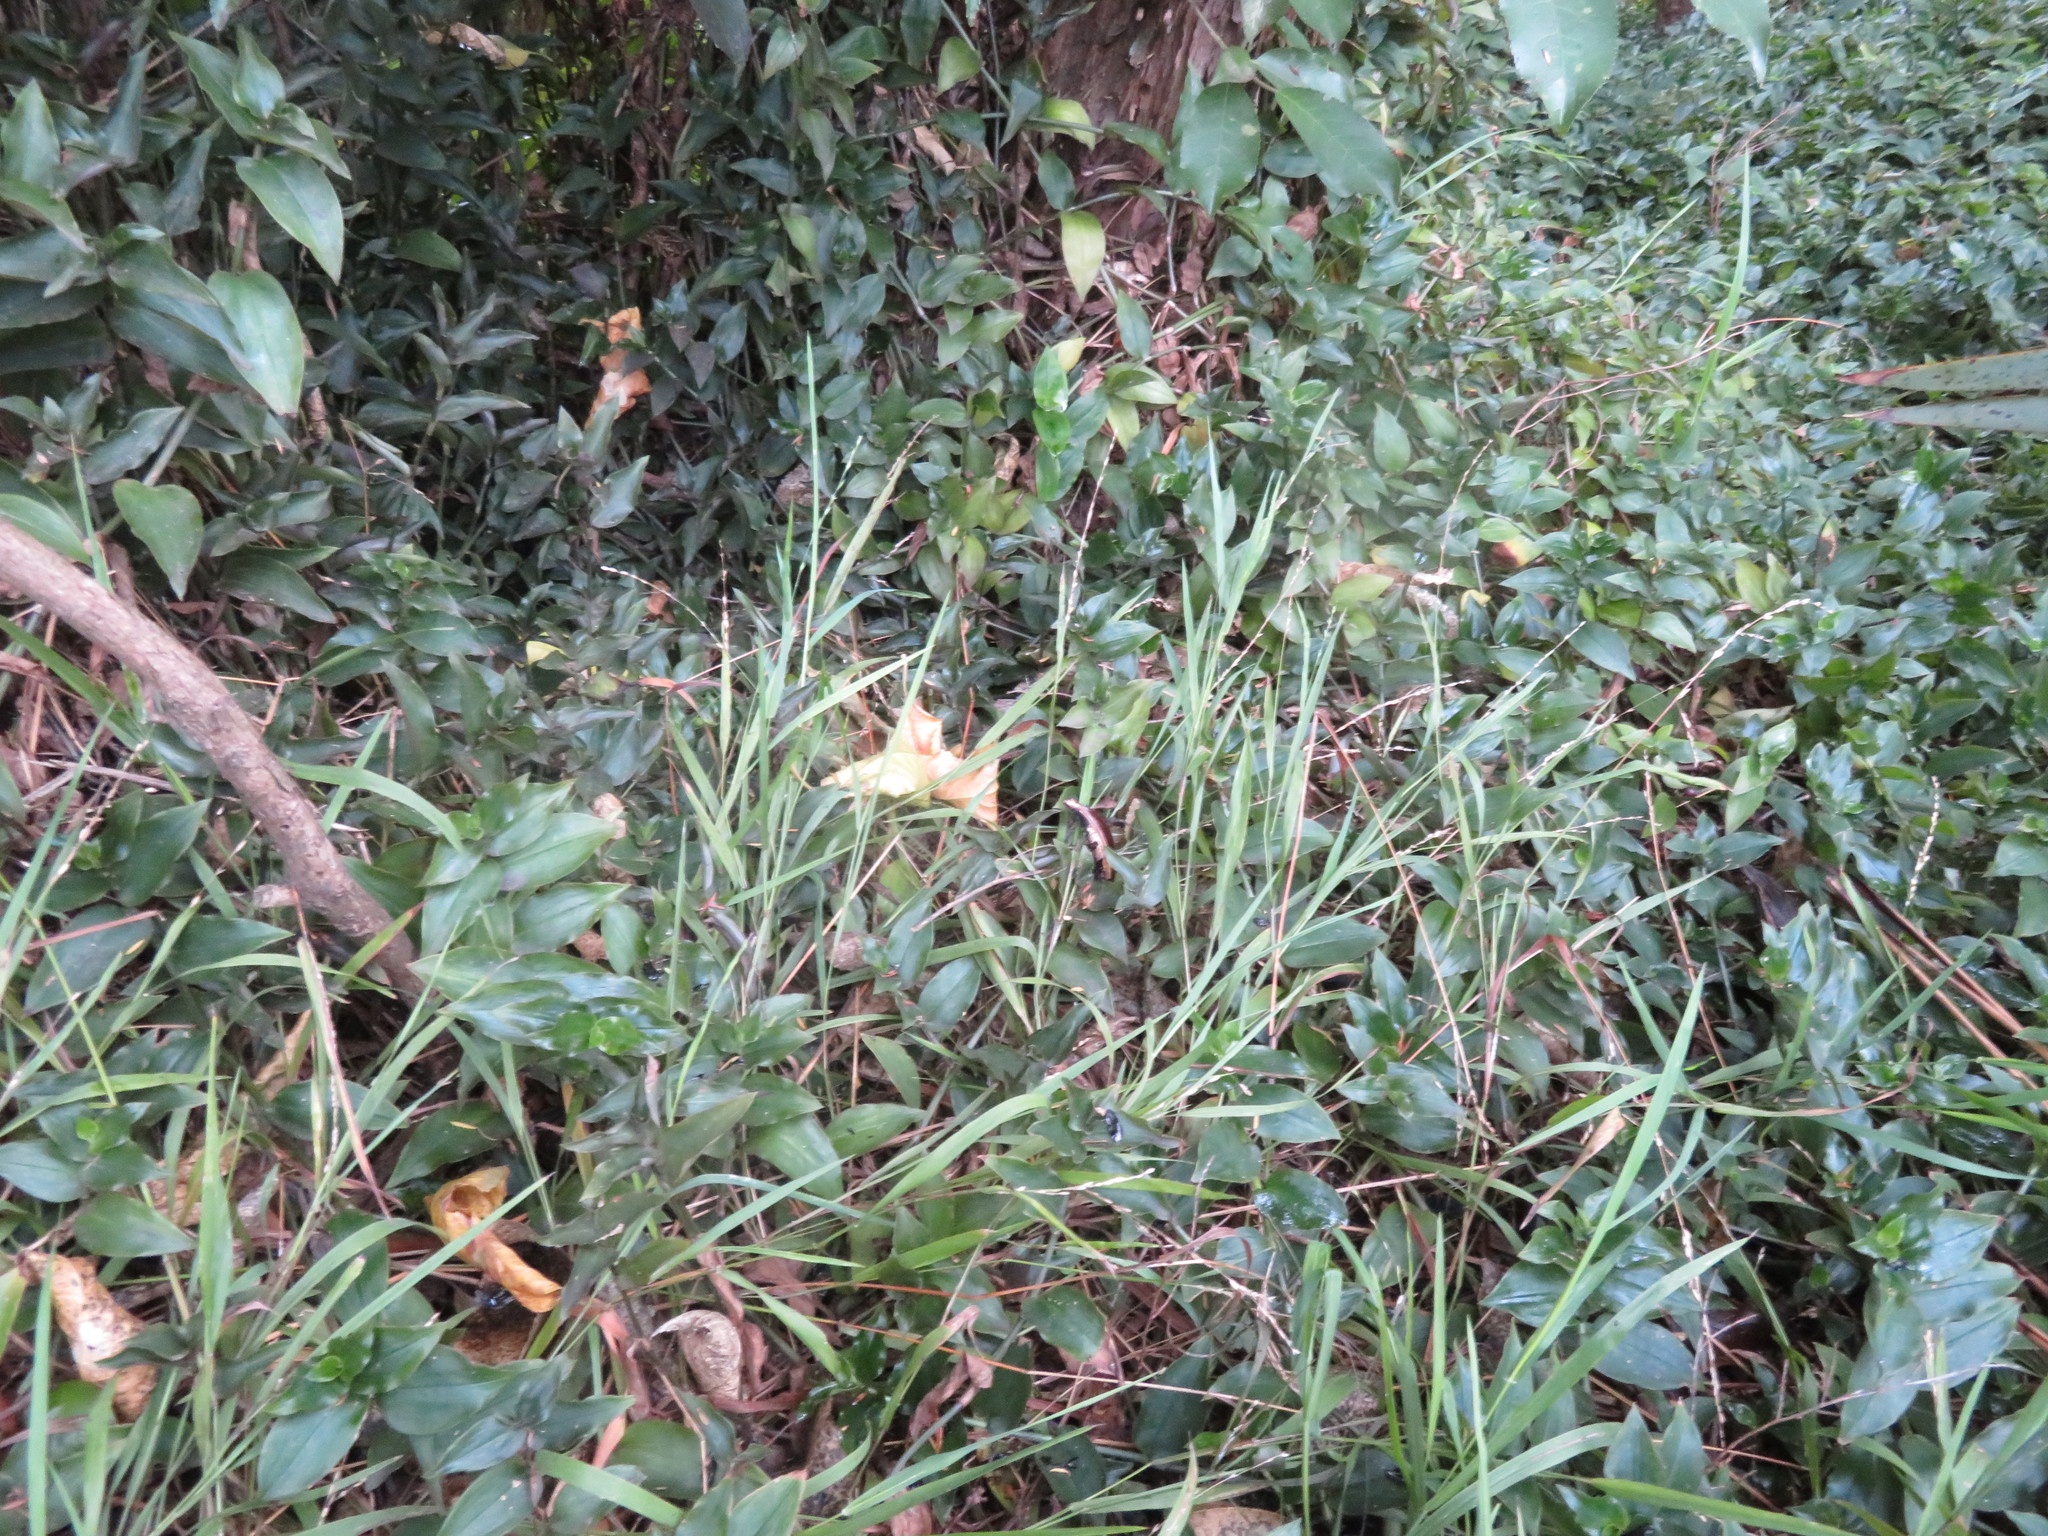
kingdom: Plantae
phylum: Tracheophyta
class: Liliopsida
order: Poales
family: Poaceae
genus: Ehrharta
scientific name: Ehrharta erecta
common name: Panic veldtgrass
